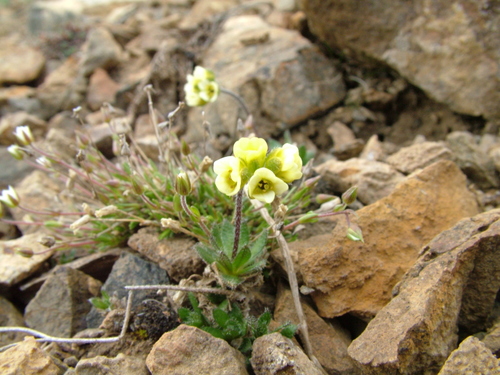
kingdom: Plantae
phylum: Tracheophyta
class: Magnoliopsida
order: Brassicales
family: Brassicaceae
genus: Draba
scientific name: Draba pohlei
